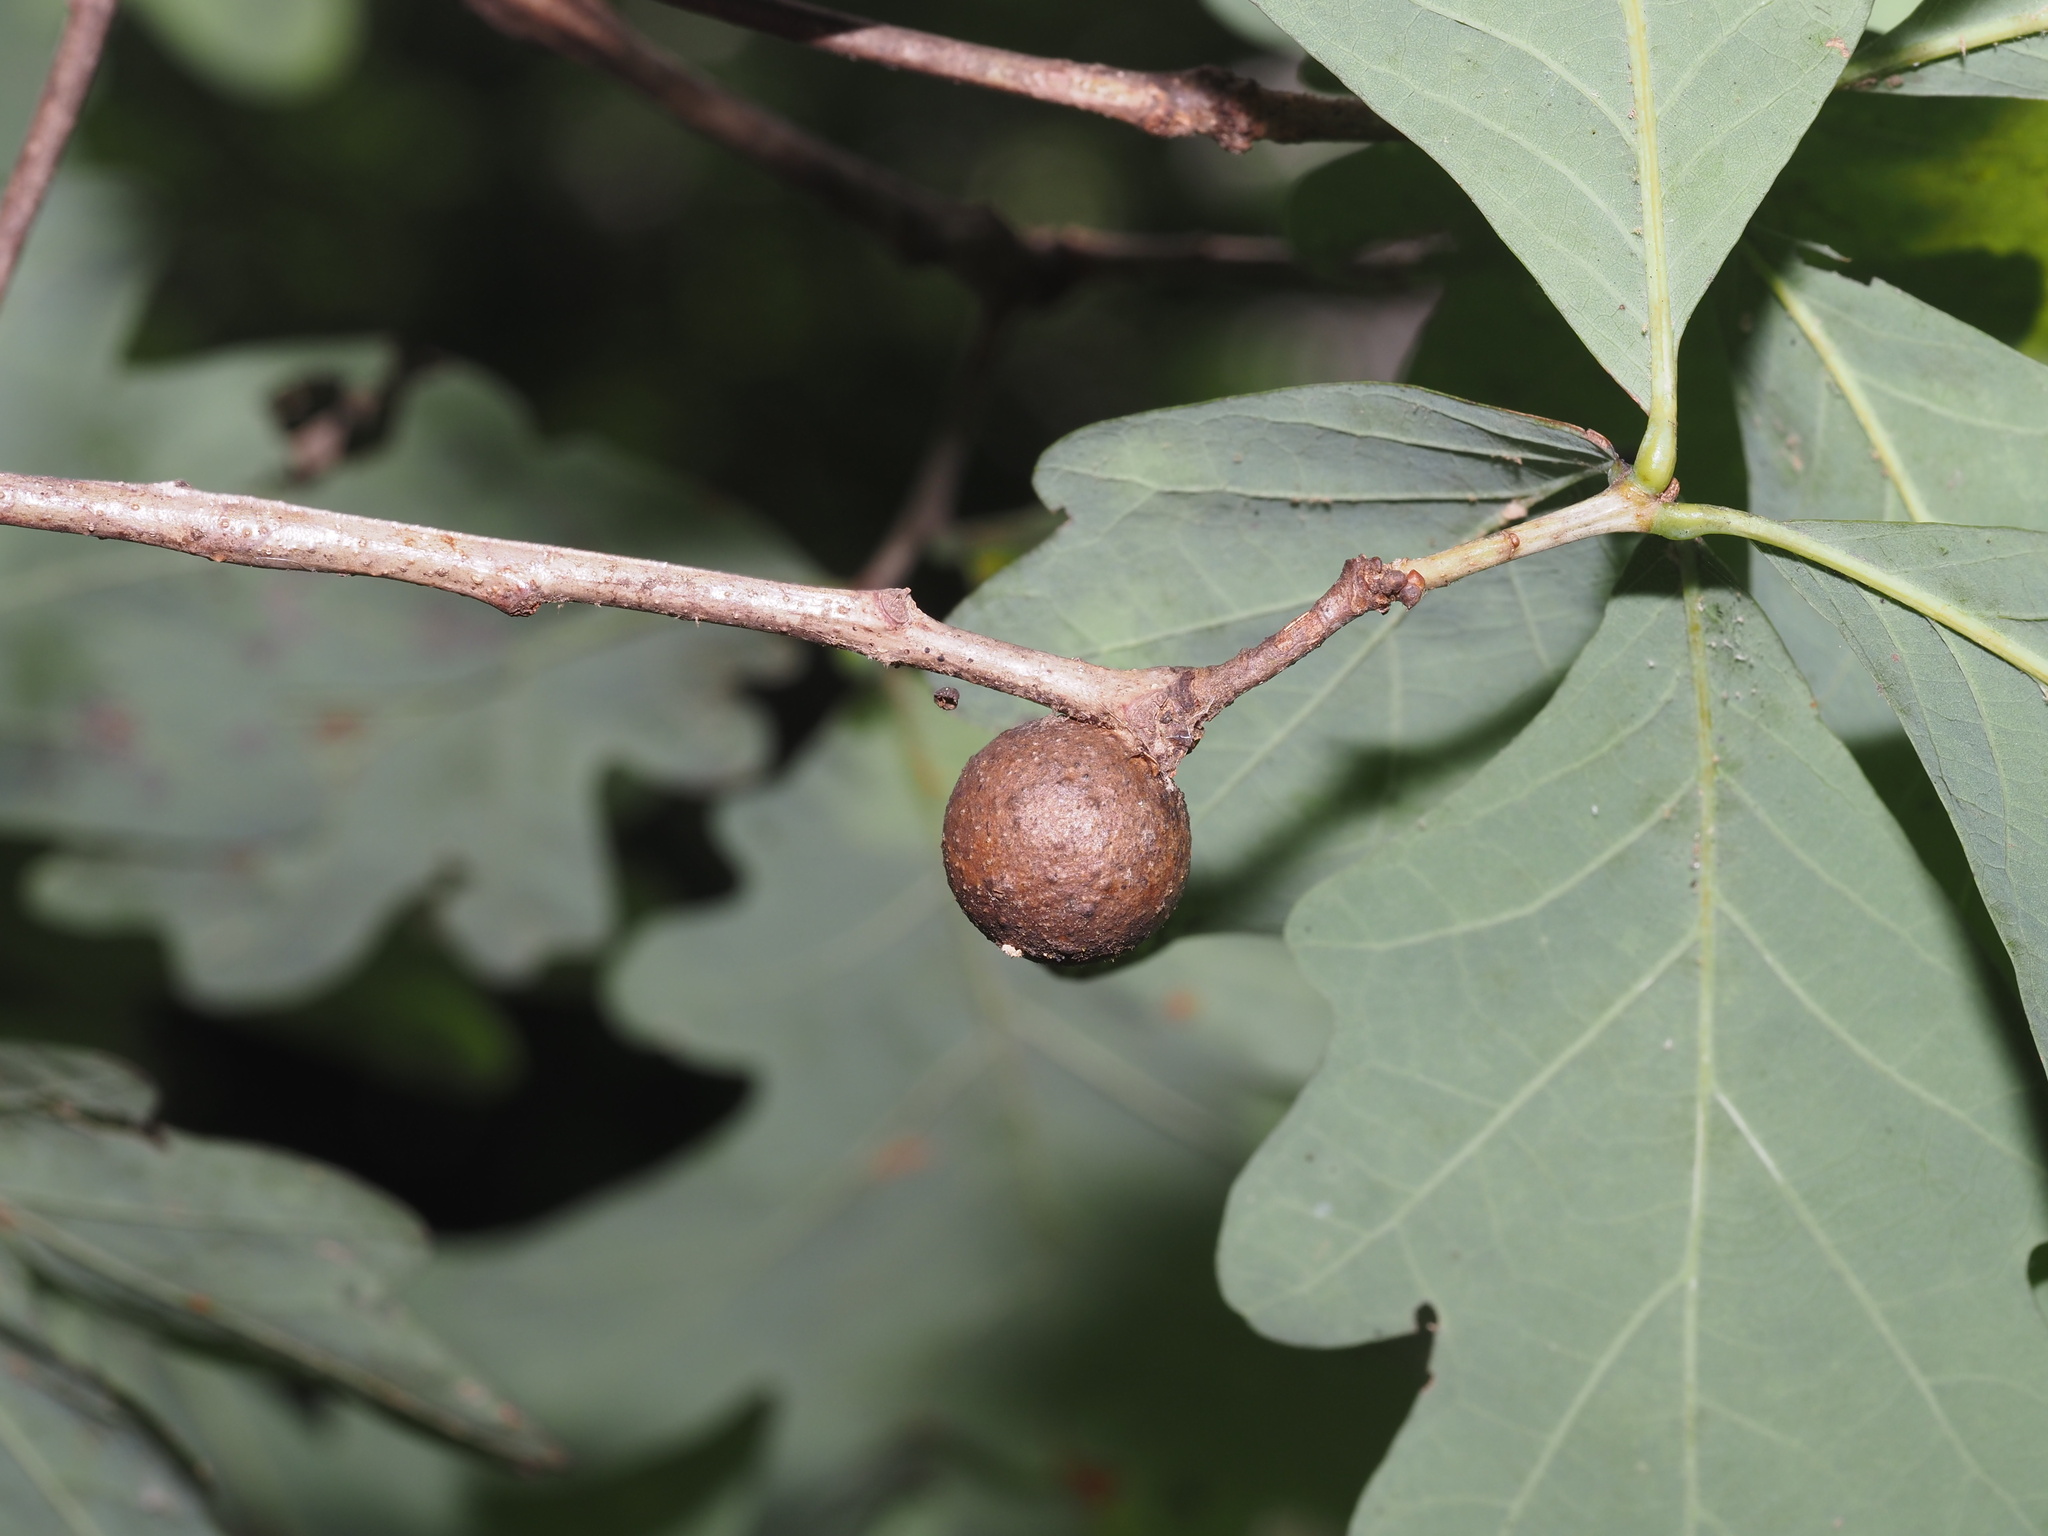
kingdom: Plantae
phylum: Tracheophyta
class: Magnoliopsida
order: Fagales
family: Fagaceae
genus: Quercus
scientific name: Quercus alba
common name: White oak
